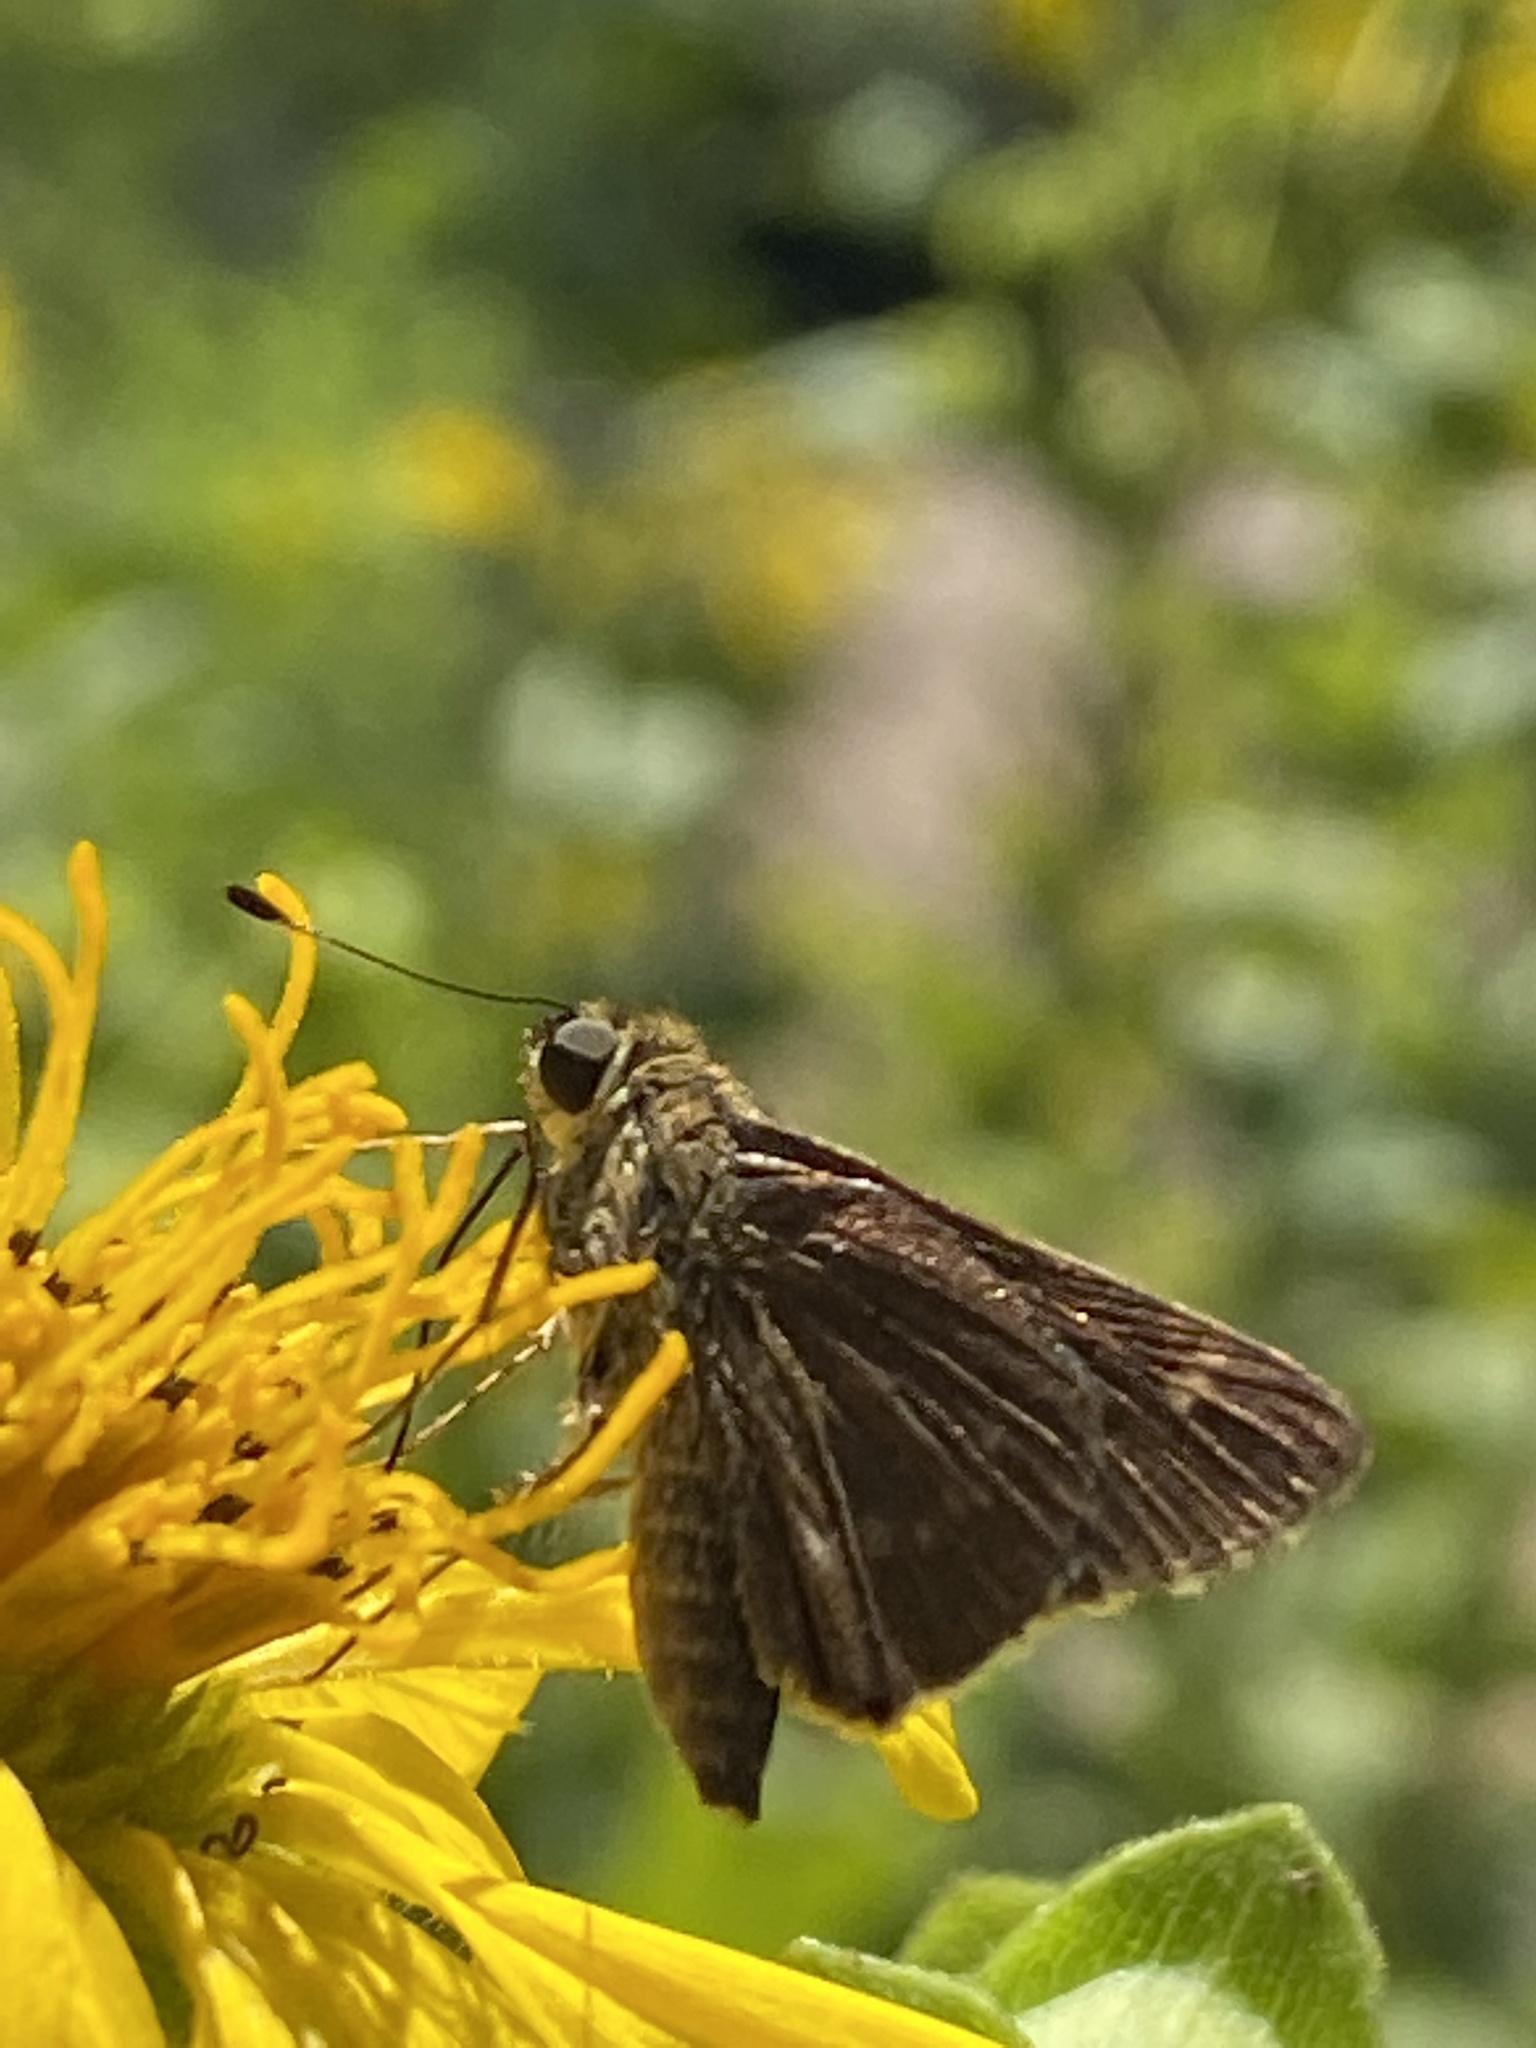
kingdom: Animalia
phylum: Arthropoda
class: Insecta
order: Lepidoptera
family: Hesperiidae
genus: Vernia
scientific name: Vernia verna
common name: Little glassywing
